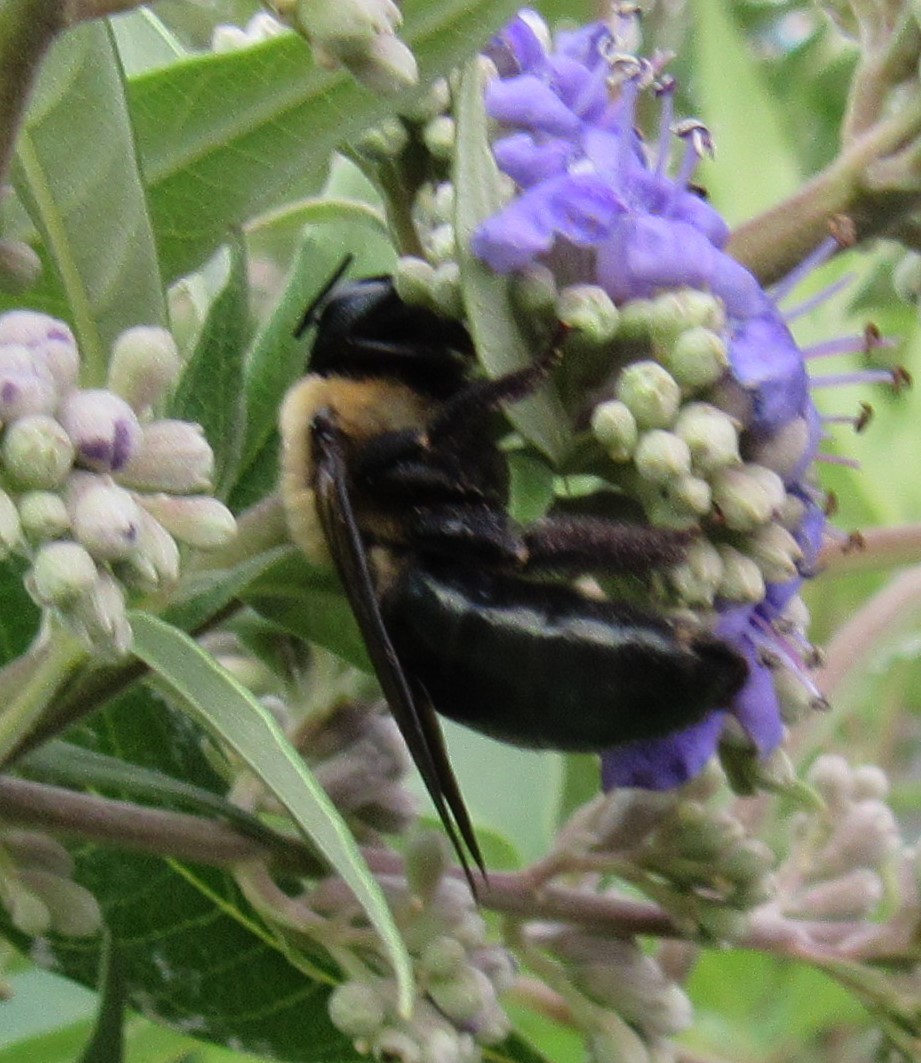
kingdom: Animalia
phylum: Arthropoda
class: Insecta
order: Hymenoptera
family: Apidae
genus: Xylocopa
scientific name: Xylocopa virginica
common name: Carpenter bee
